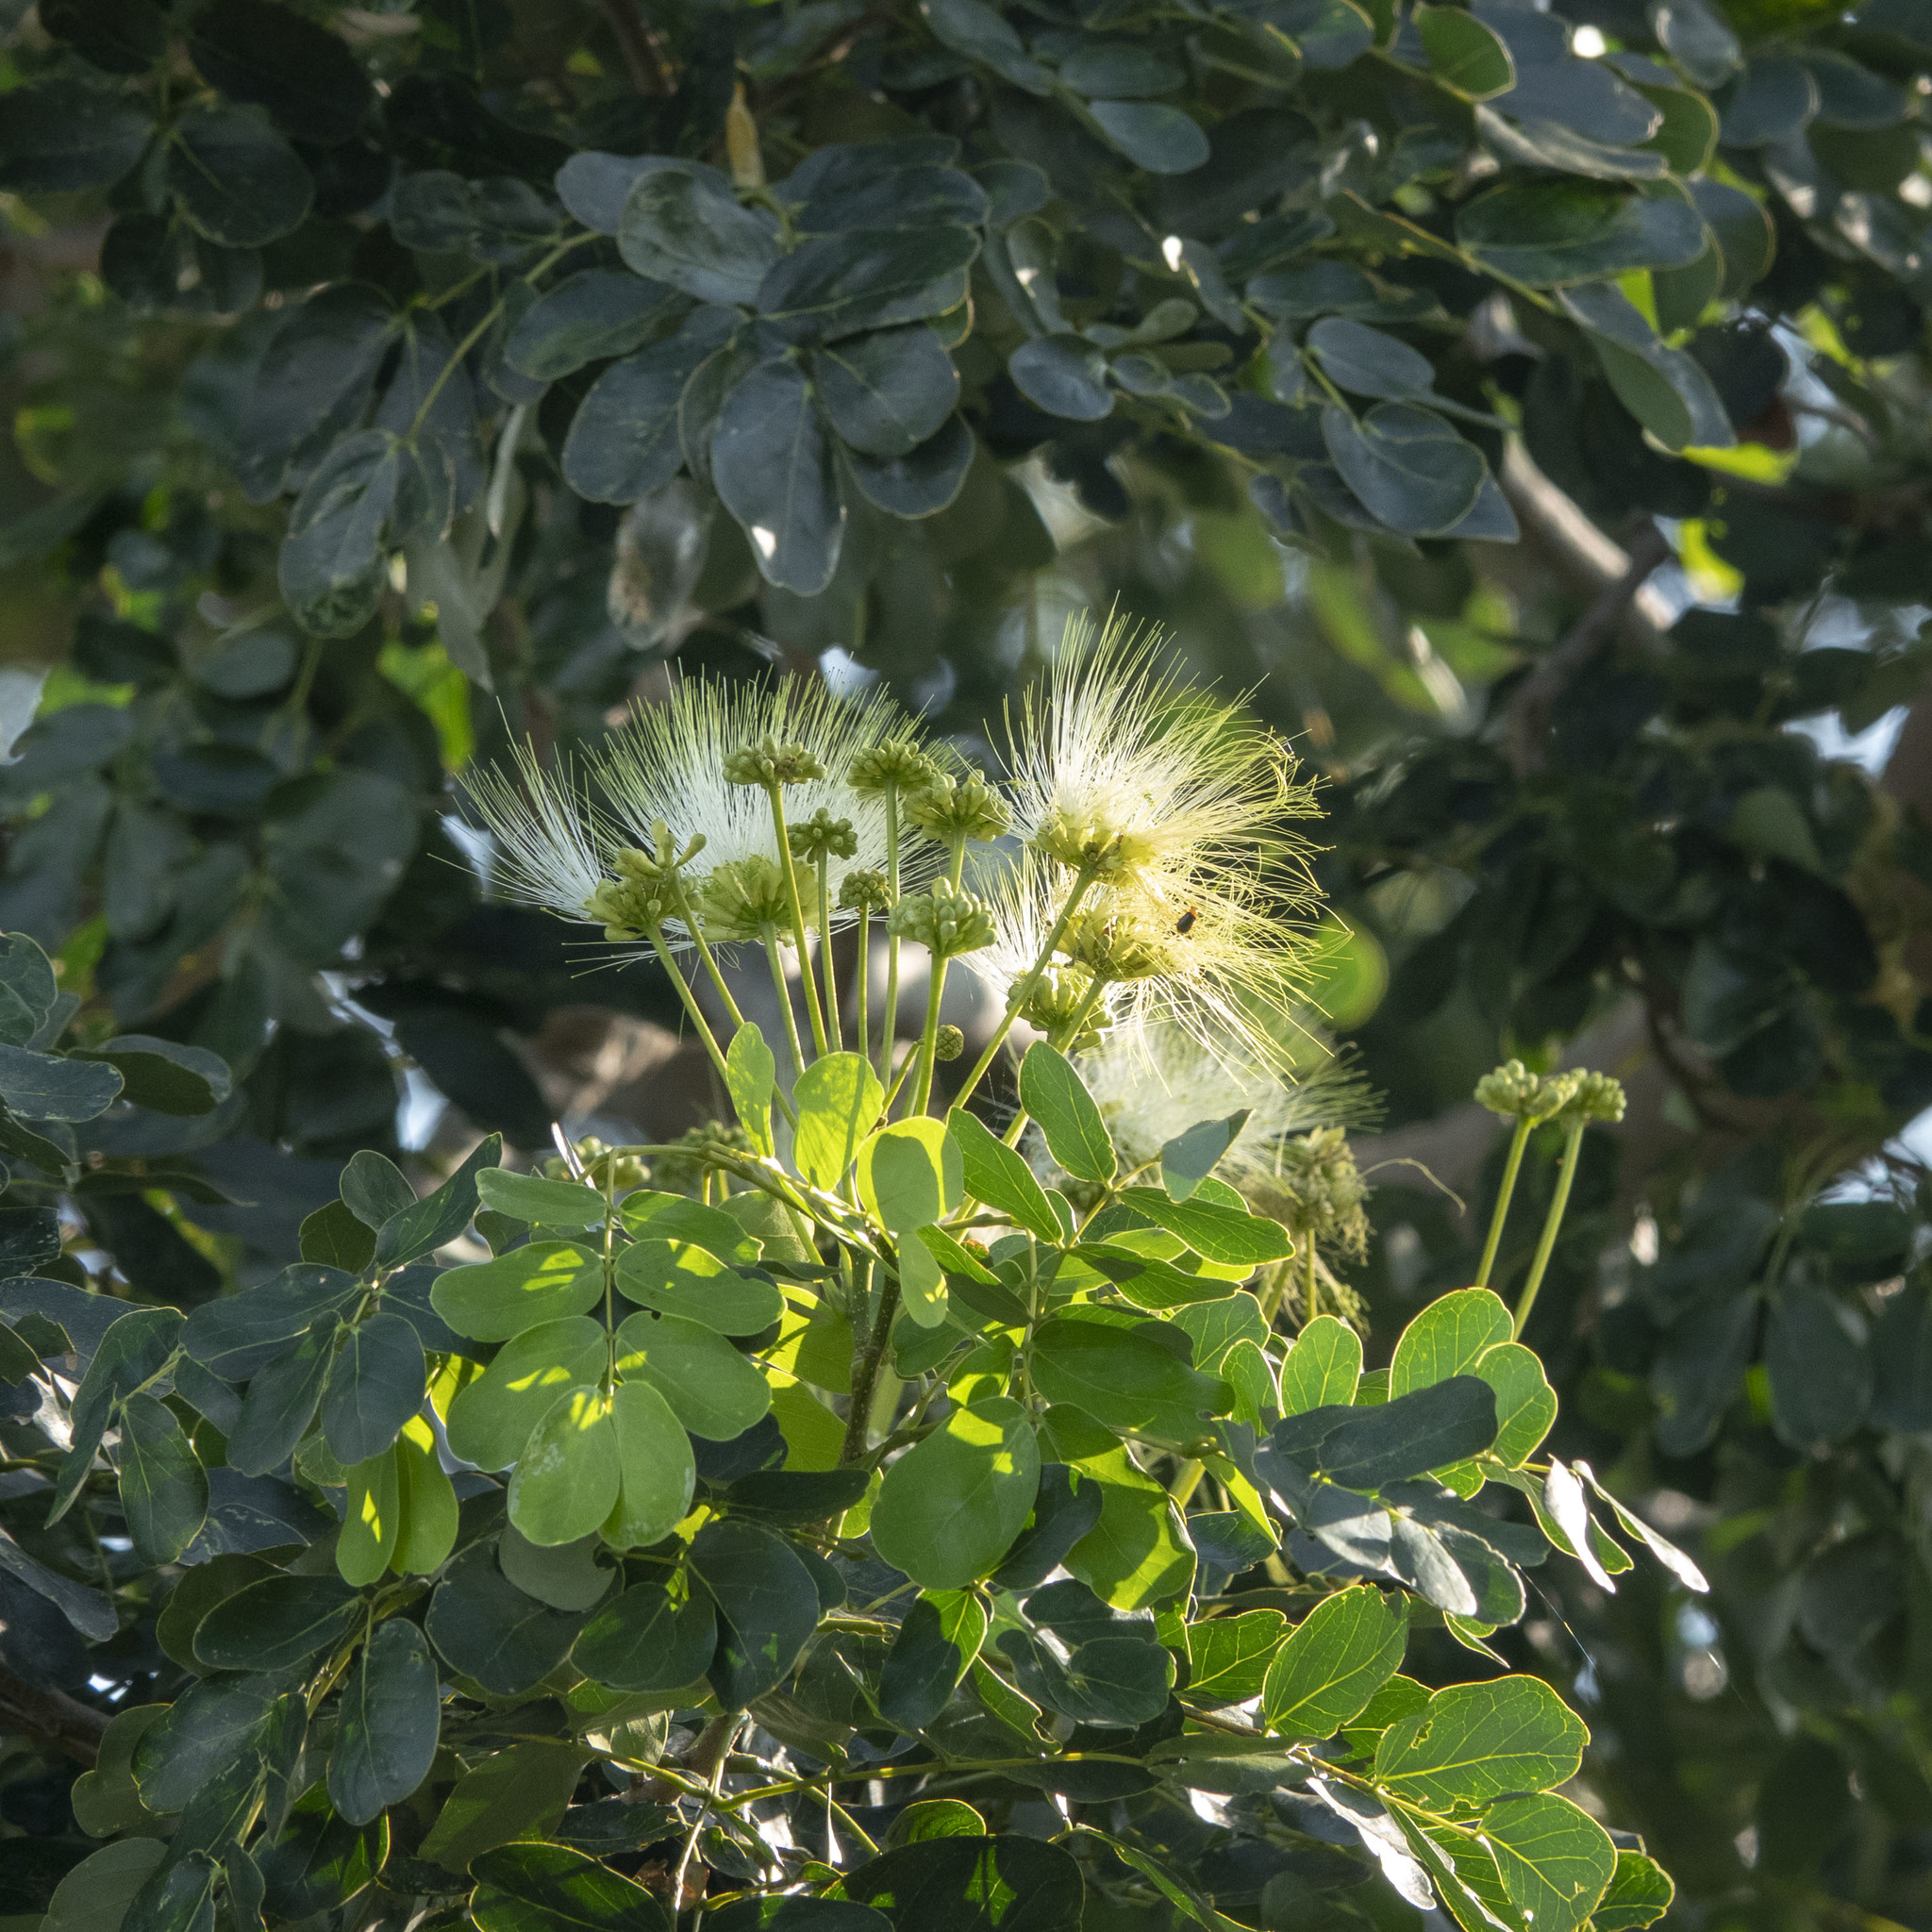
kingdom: Plantae
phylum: Tracheophyta
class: Magnoliopsida
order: Fabales
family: Fabaceae
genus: Albizia
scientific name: Albizia lebbeck
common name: Woman's tongue
